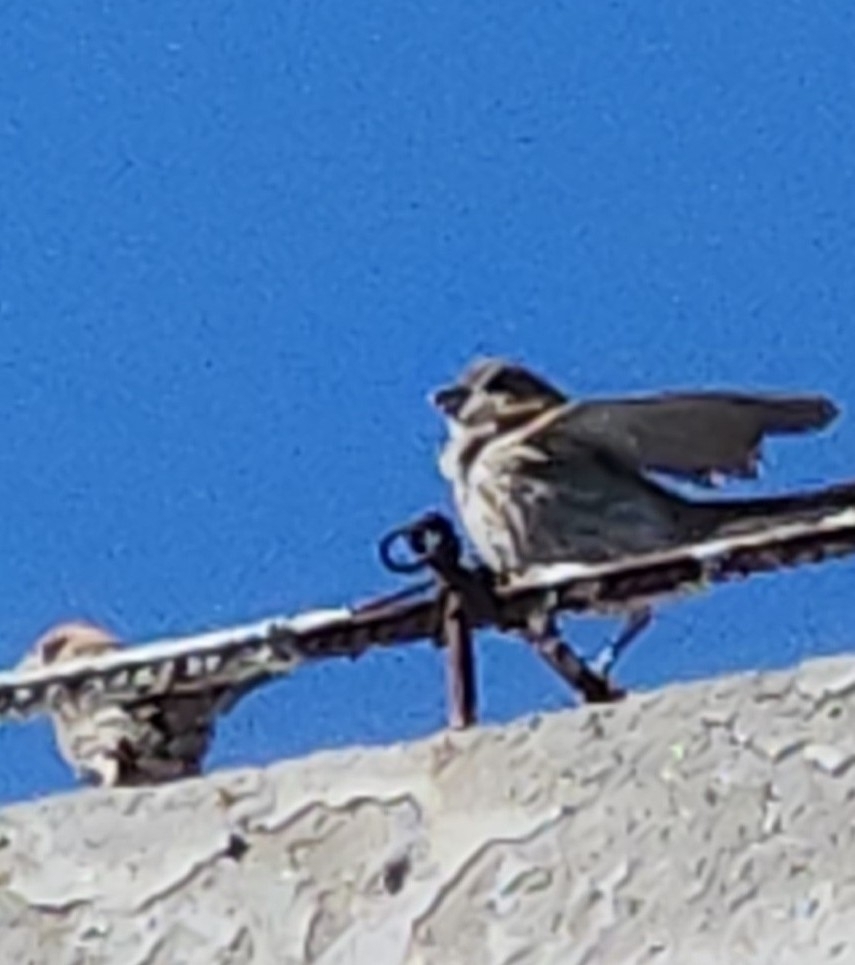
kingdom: Animalia
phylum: Chordata
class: Aves
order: Passeriformes
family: Fringillidae
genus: Haemorhous
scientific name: Haemorhous mexicanus
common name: House finch
